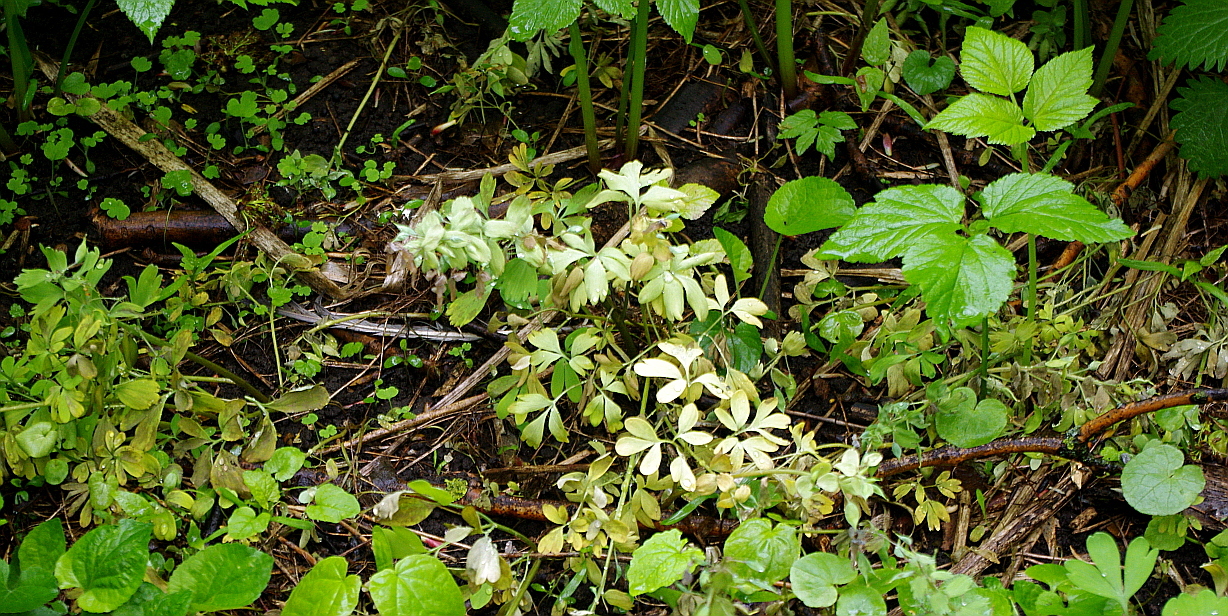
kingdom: Plantae
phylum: Tracheophyta
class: Magnoliopsida
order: Ranunculales
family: Papaveraceae
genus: Corydalis
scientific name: Corydalis solida
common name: Bird-in-a-bush
